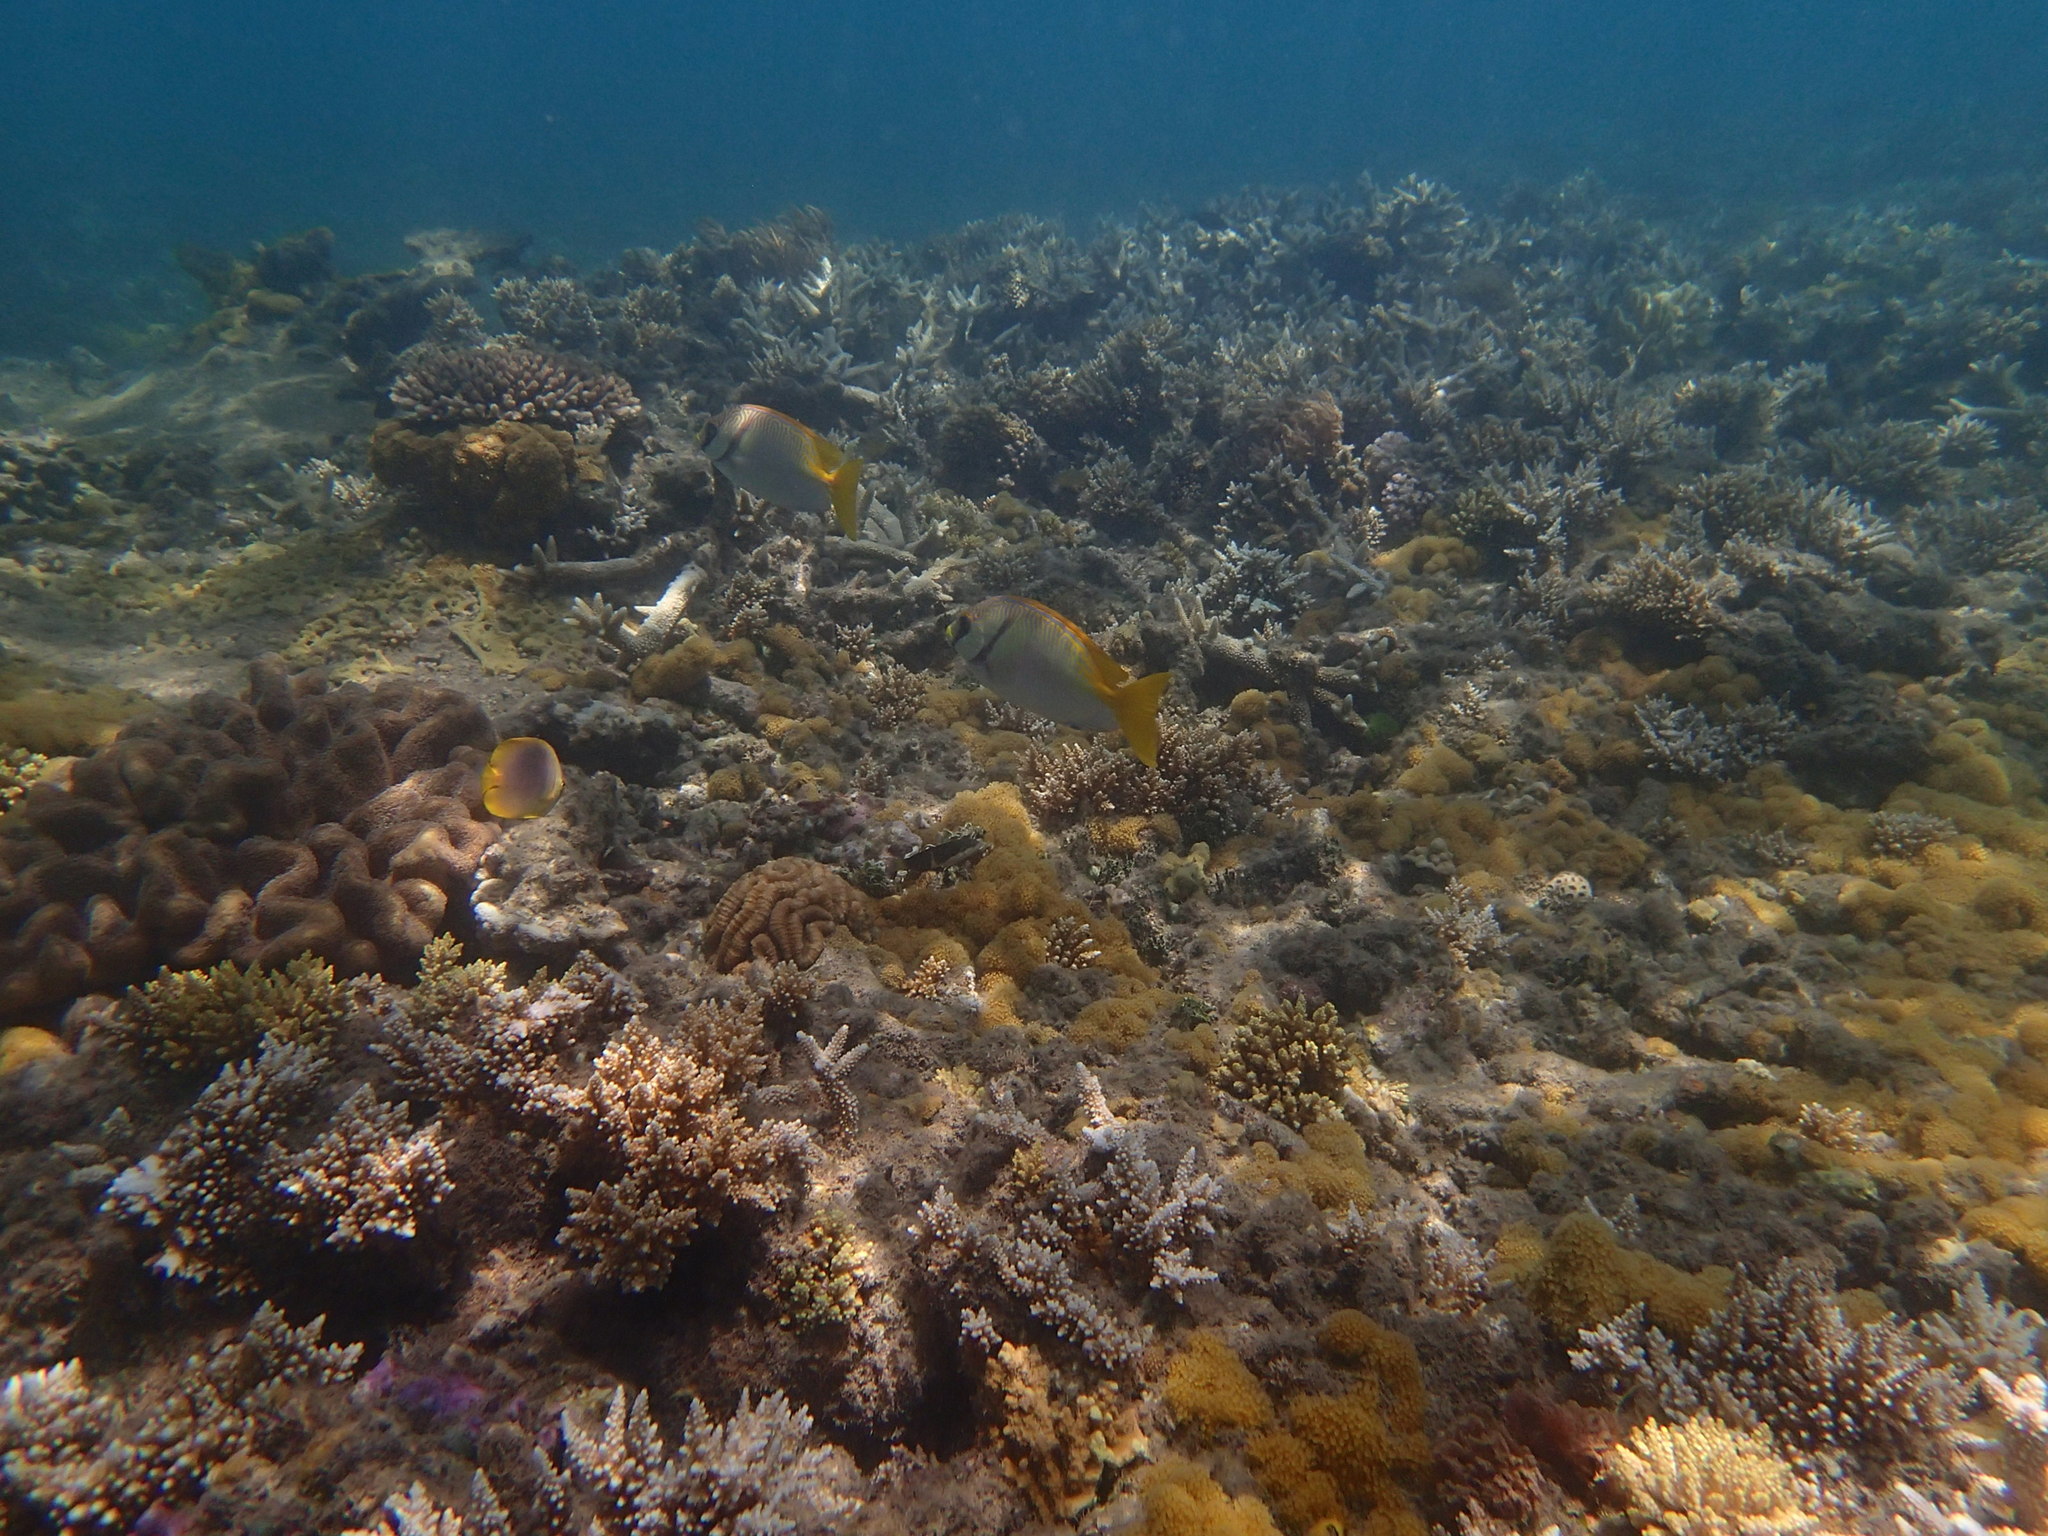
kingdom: Animalia
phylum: Chordata
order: Perciformes
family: Siganidae
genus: Siganus
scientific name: Siganus doliatus
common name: Barred spinefoot
